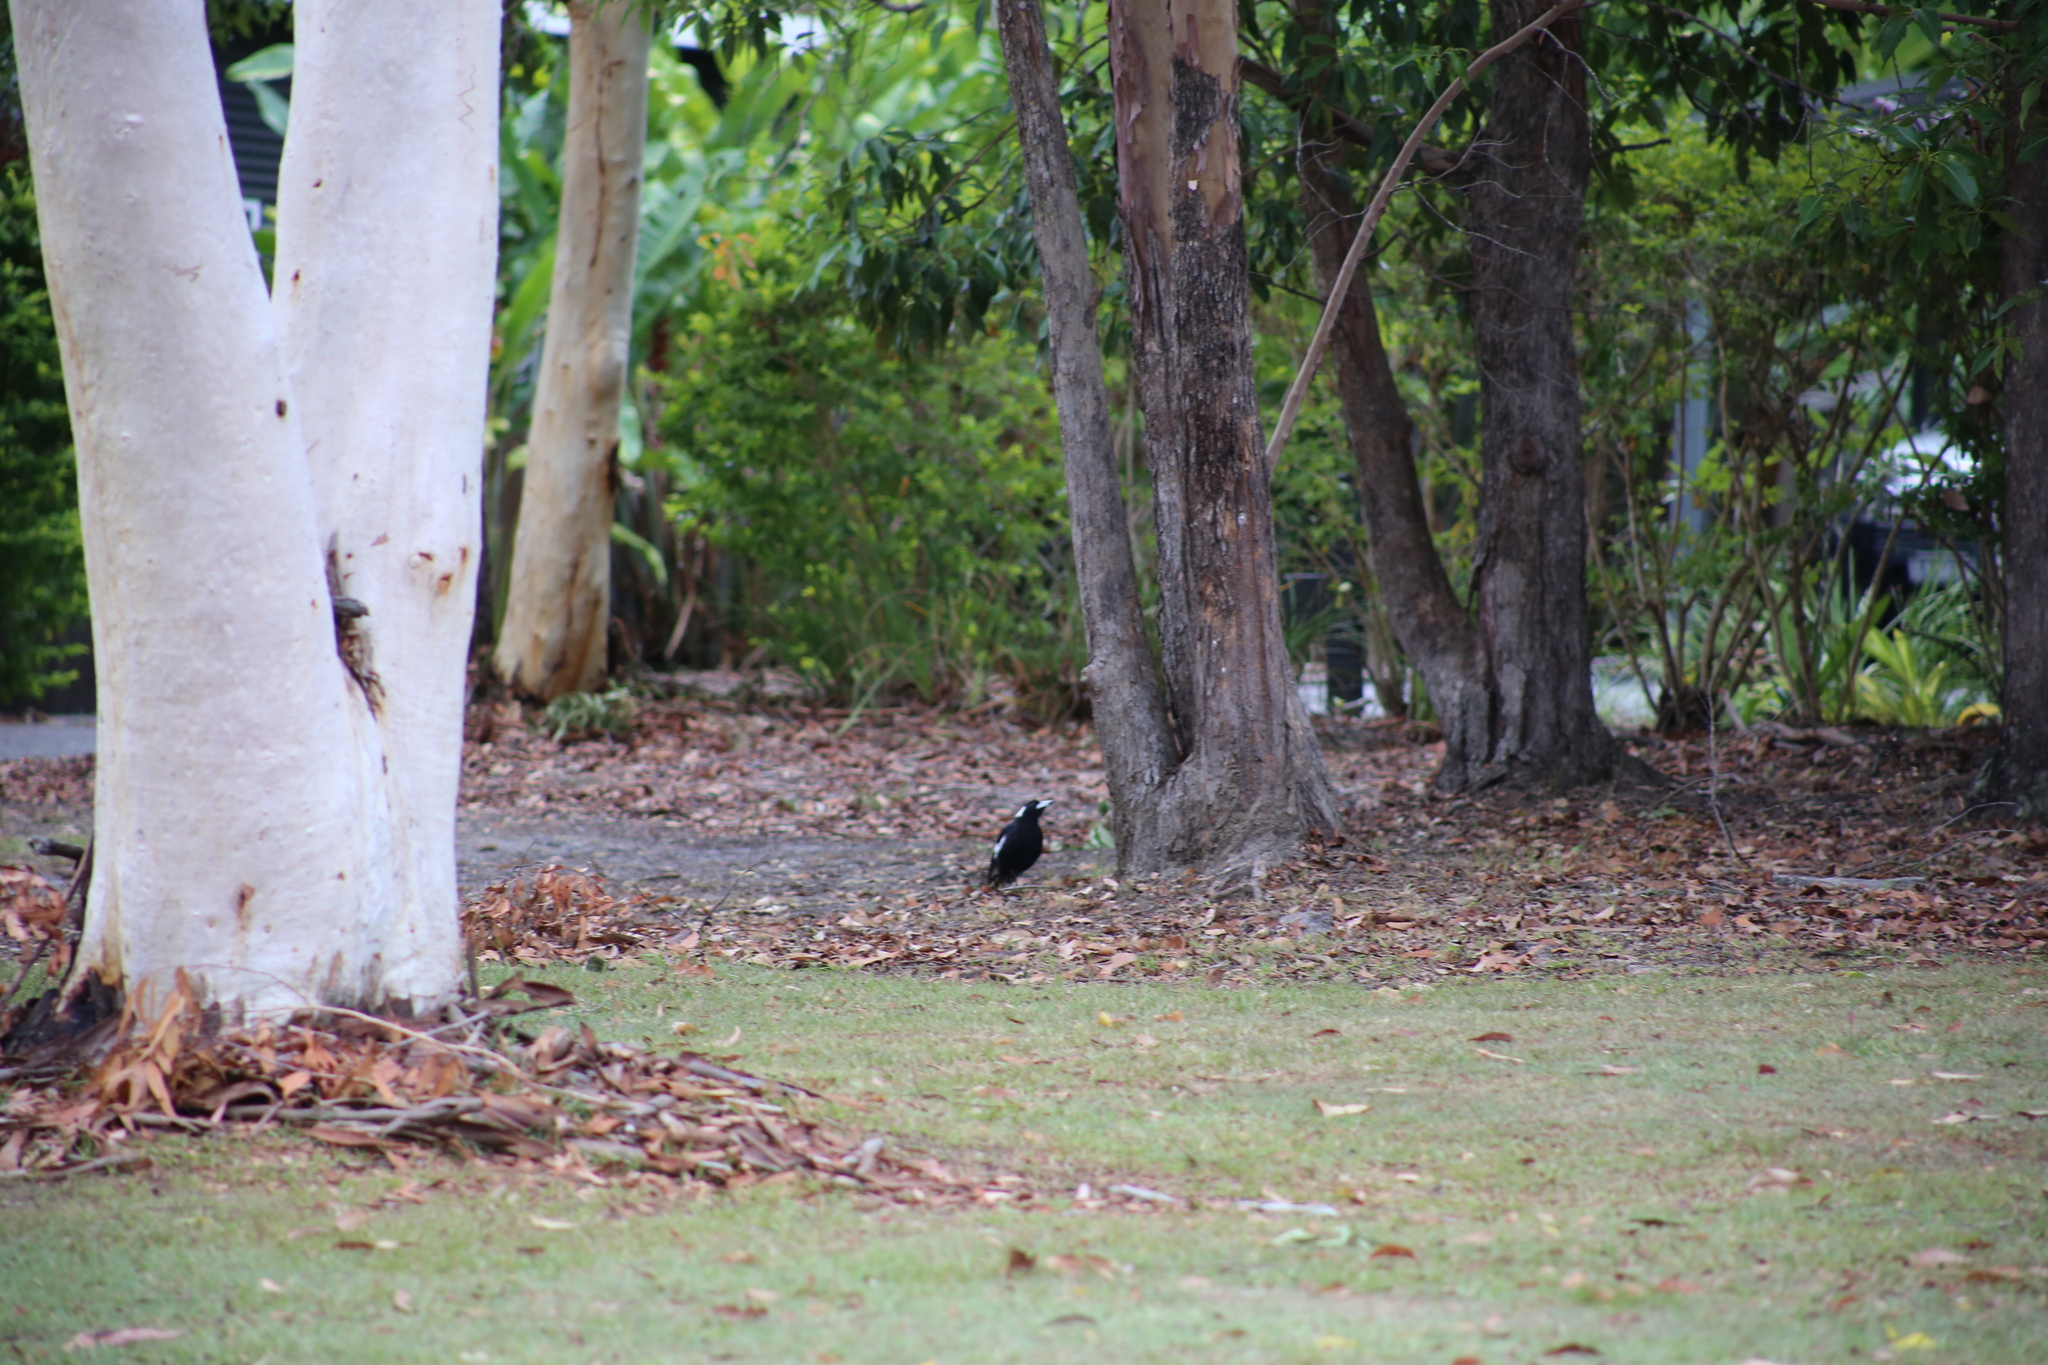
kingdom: Animalia
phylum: Chordata
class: Aves
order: Passeriformes
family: Cracticidae
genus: Gymnorhina
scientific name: Gymnorhina tibicen
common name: Australian magpie
